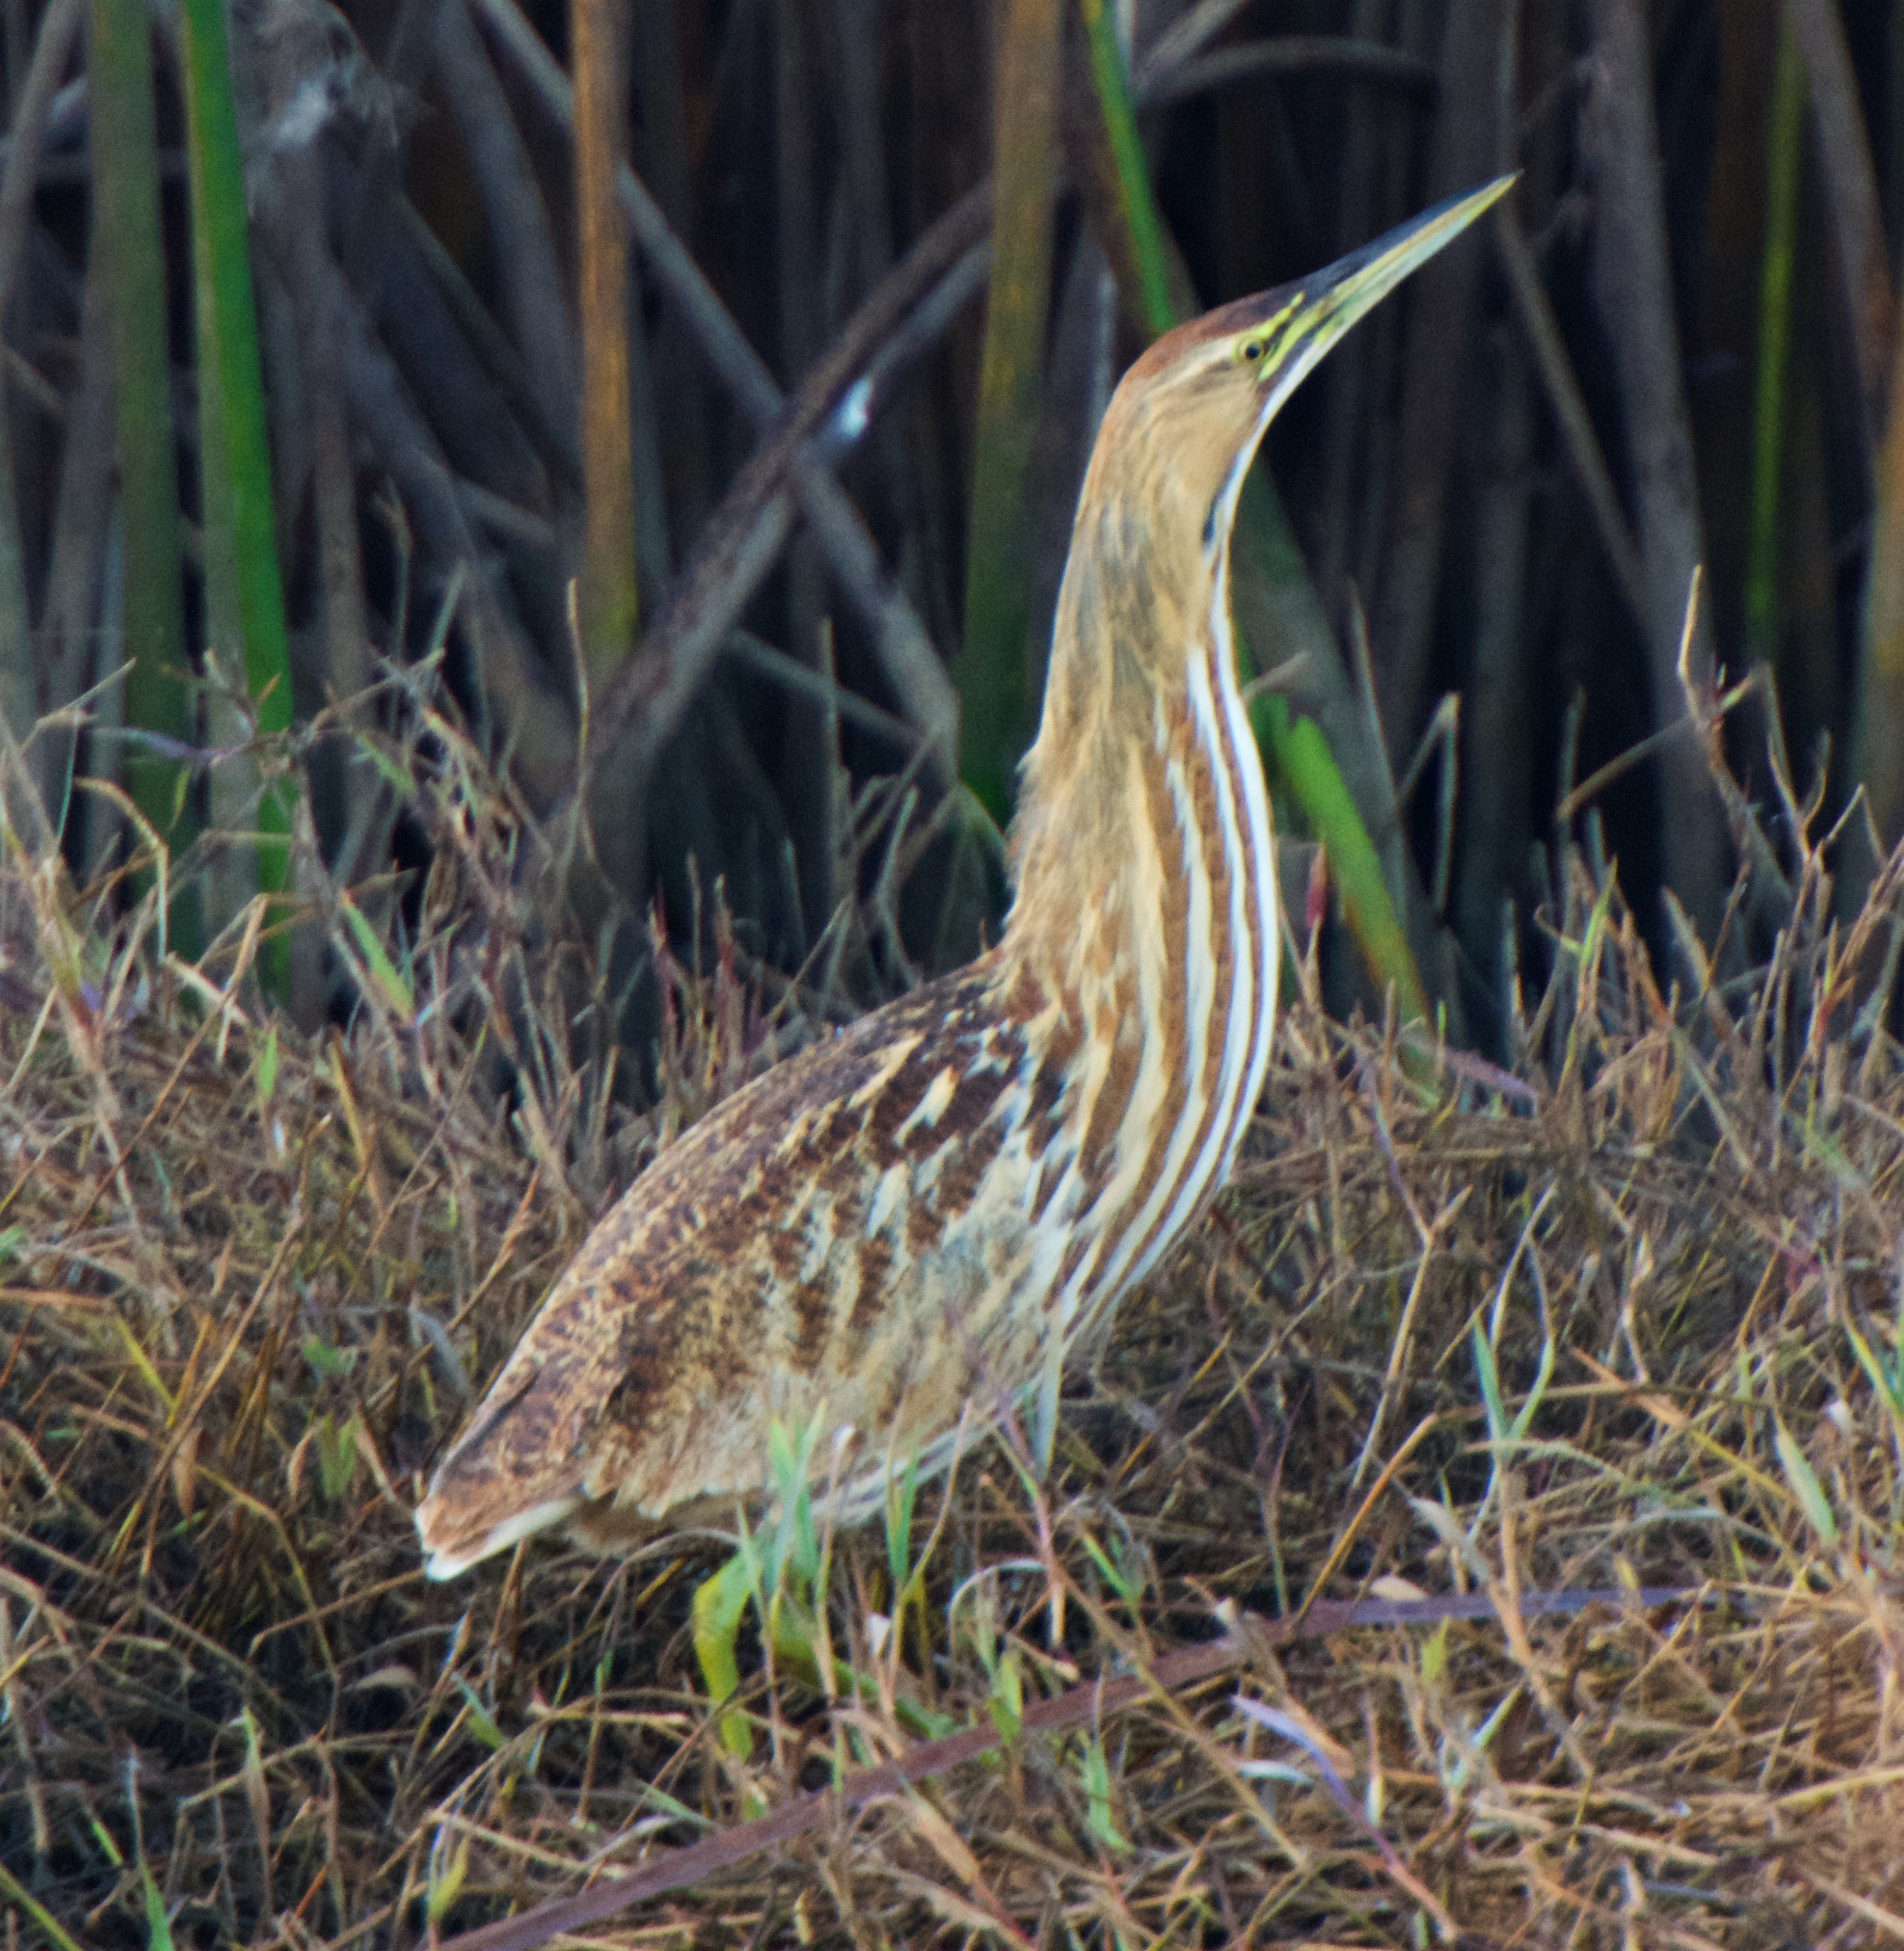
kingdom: Animalia
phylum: Chordata
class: Aves
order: Pelecaniformes
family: Ardeidae
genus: Botaurus
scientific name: Botaurus lentiginosus
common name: American bittern
